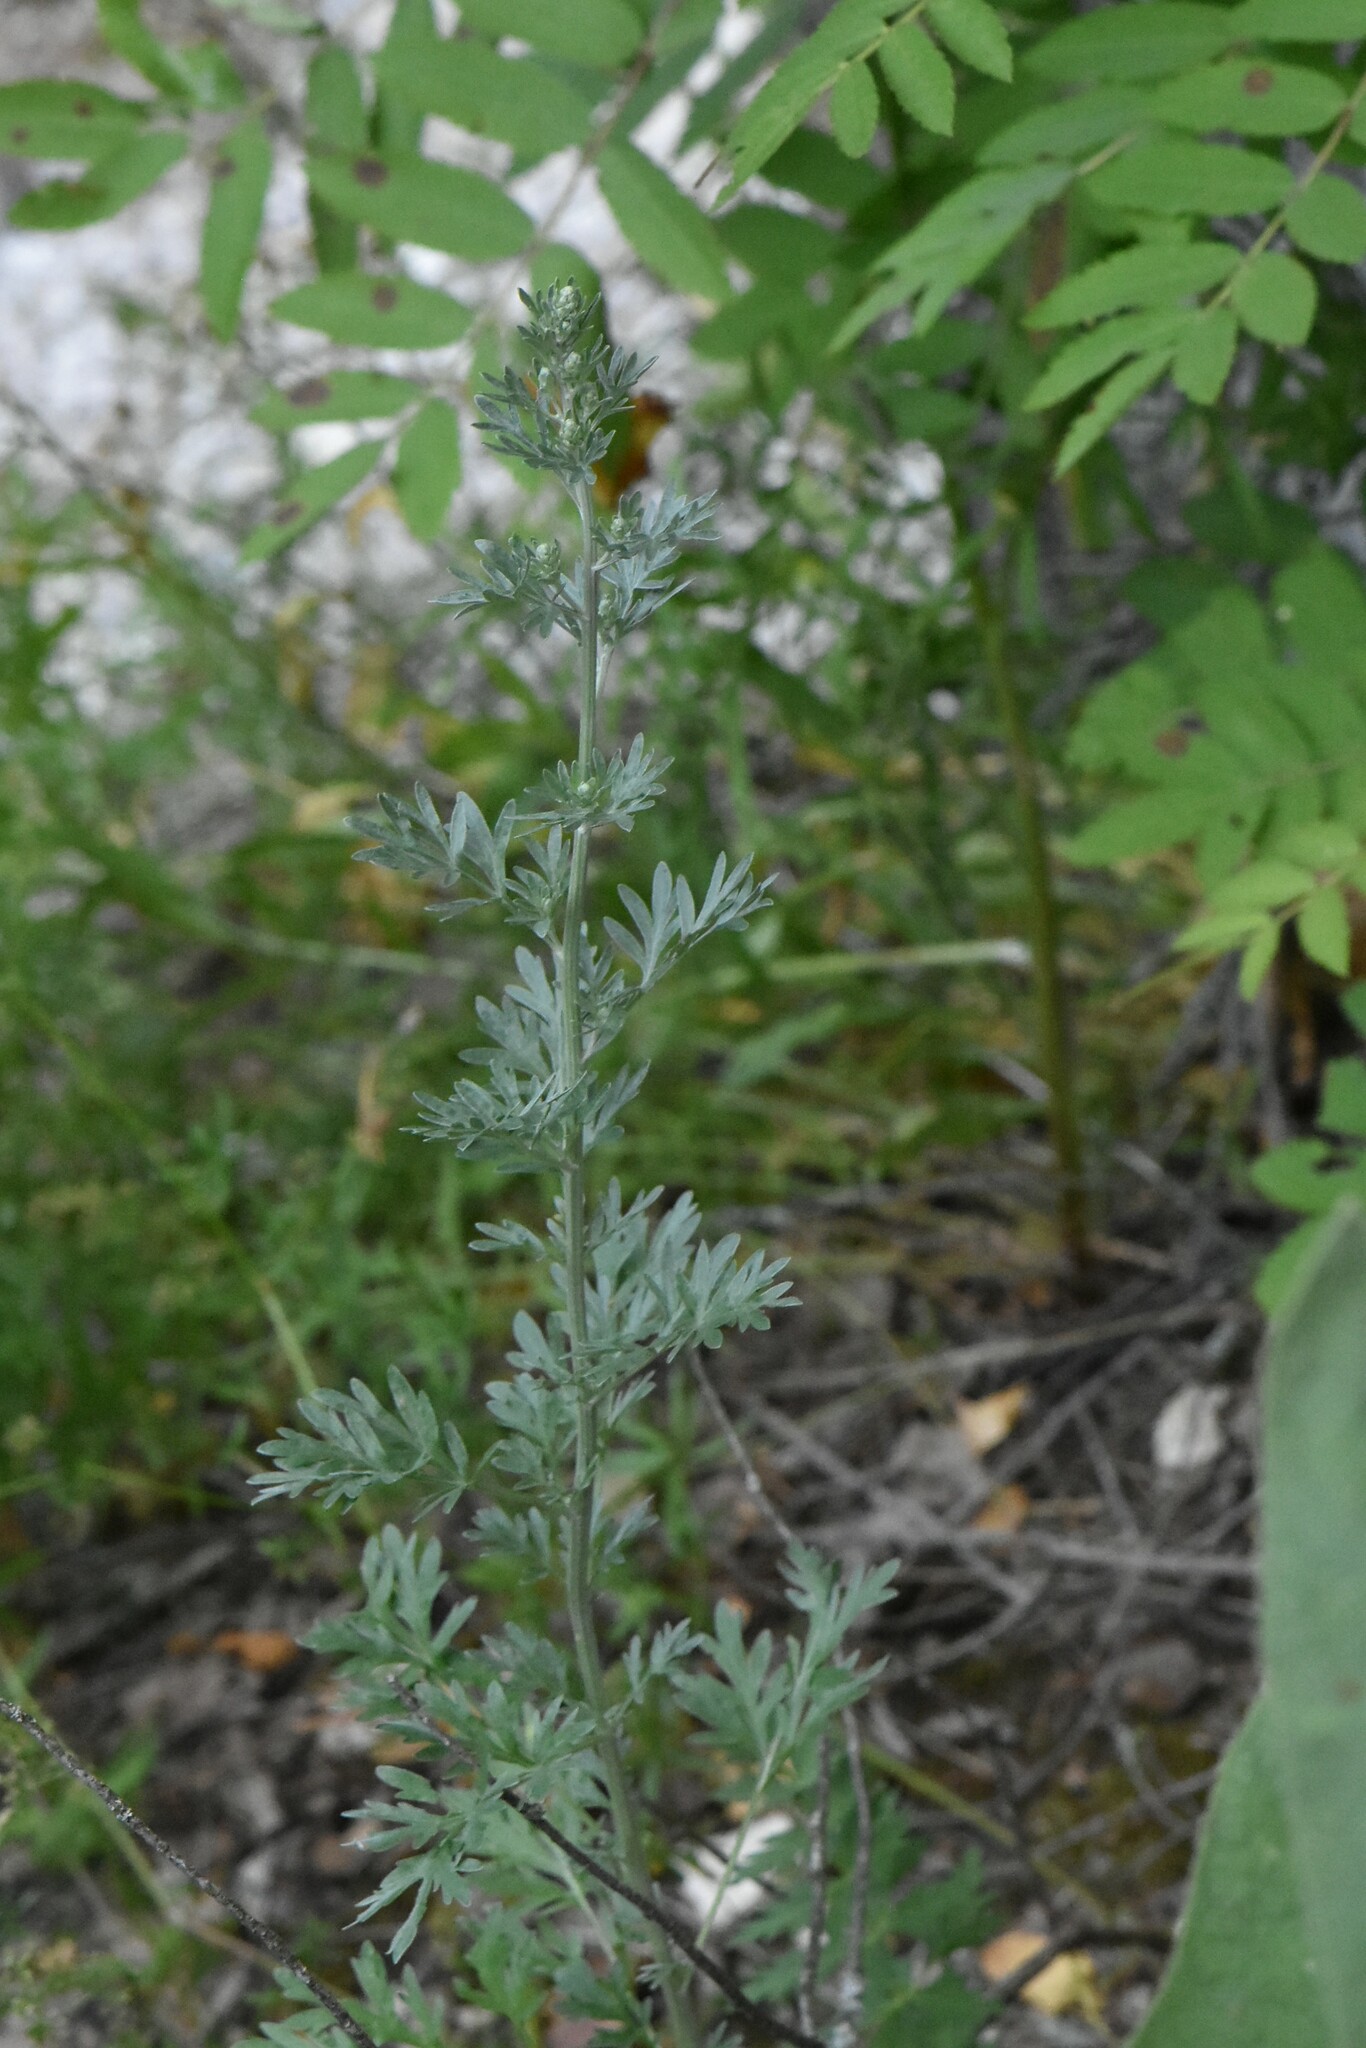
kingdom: Plantae
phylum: Tracheophyta
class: Magnoliopsida
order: Asterales
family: Asteraceae
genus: Artemisia
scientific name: Artemisia absinthium
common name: Wormwood
